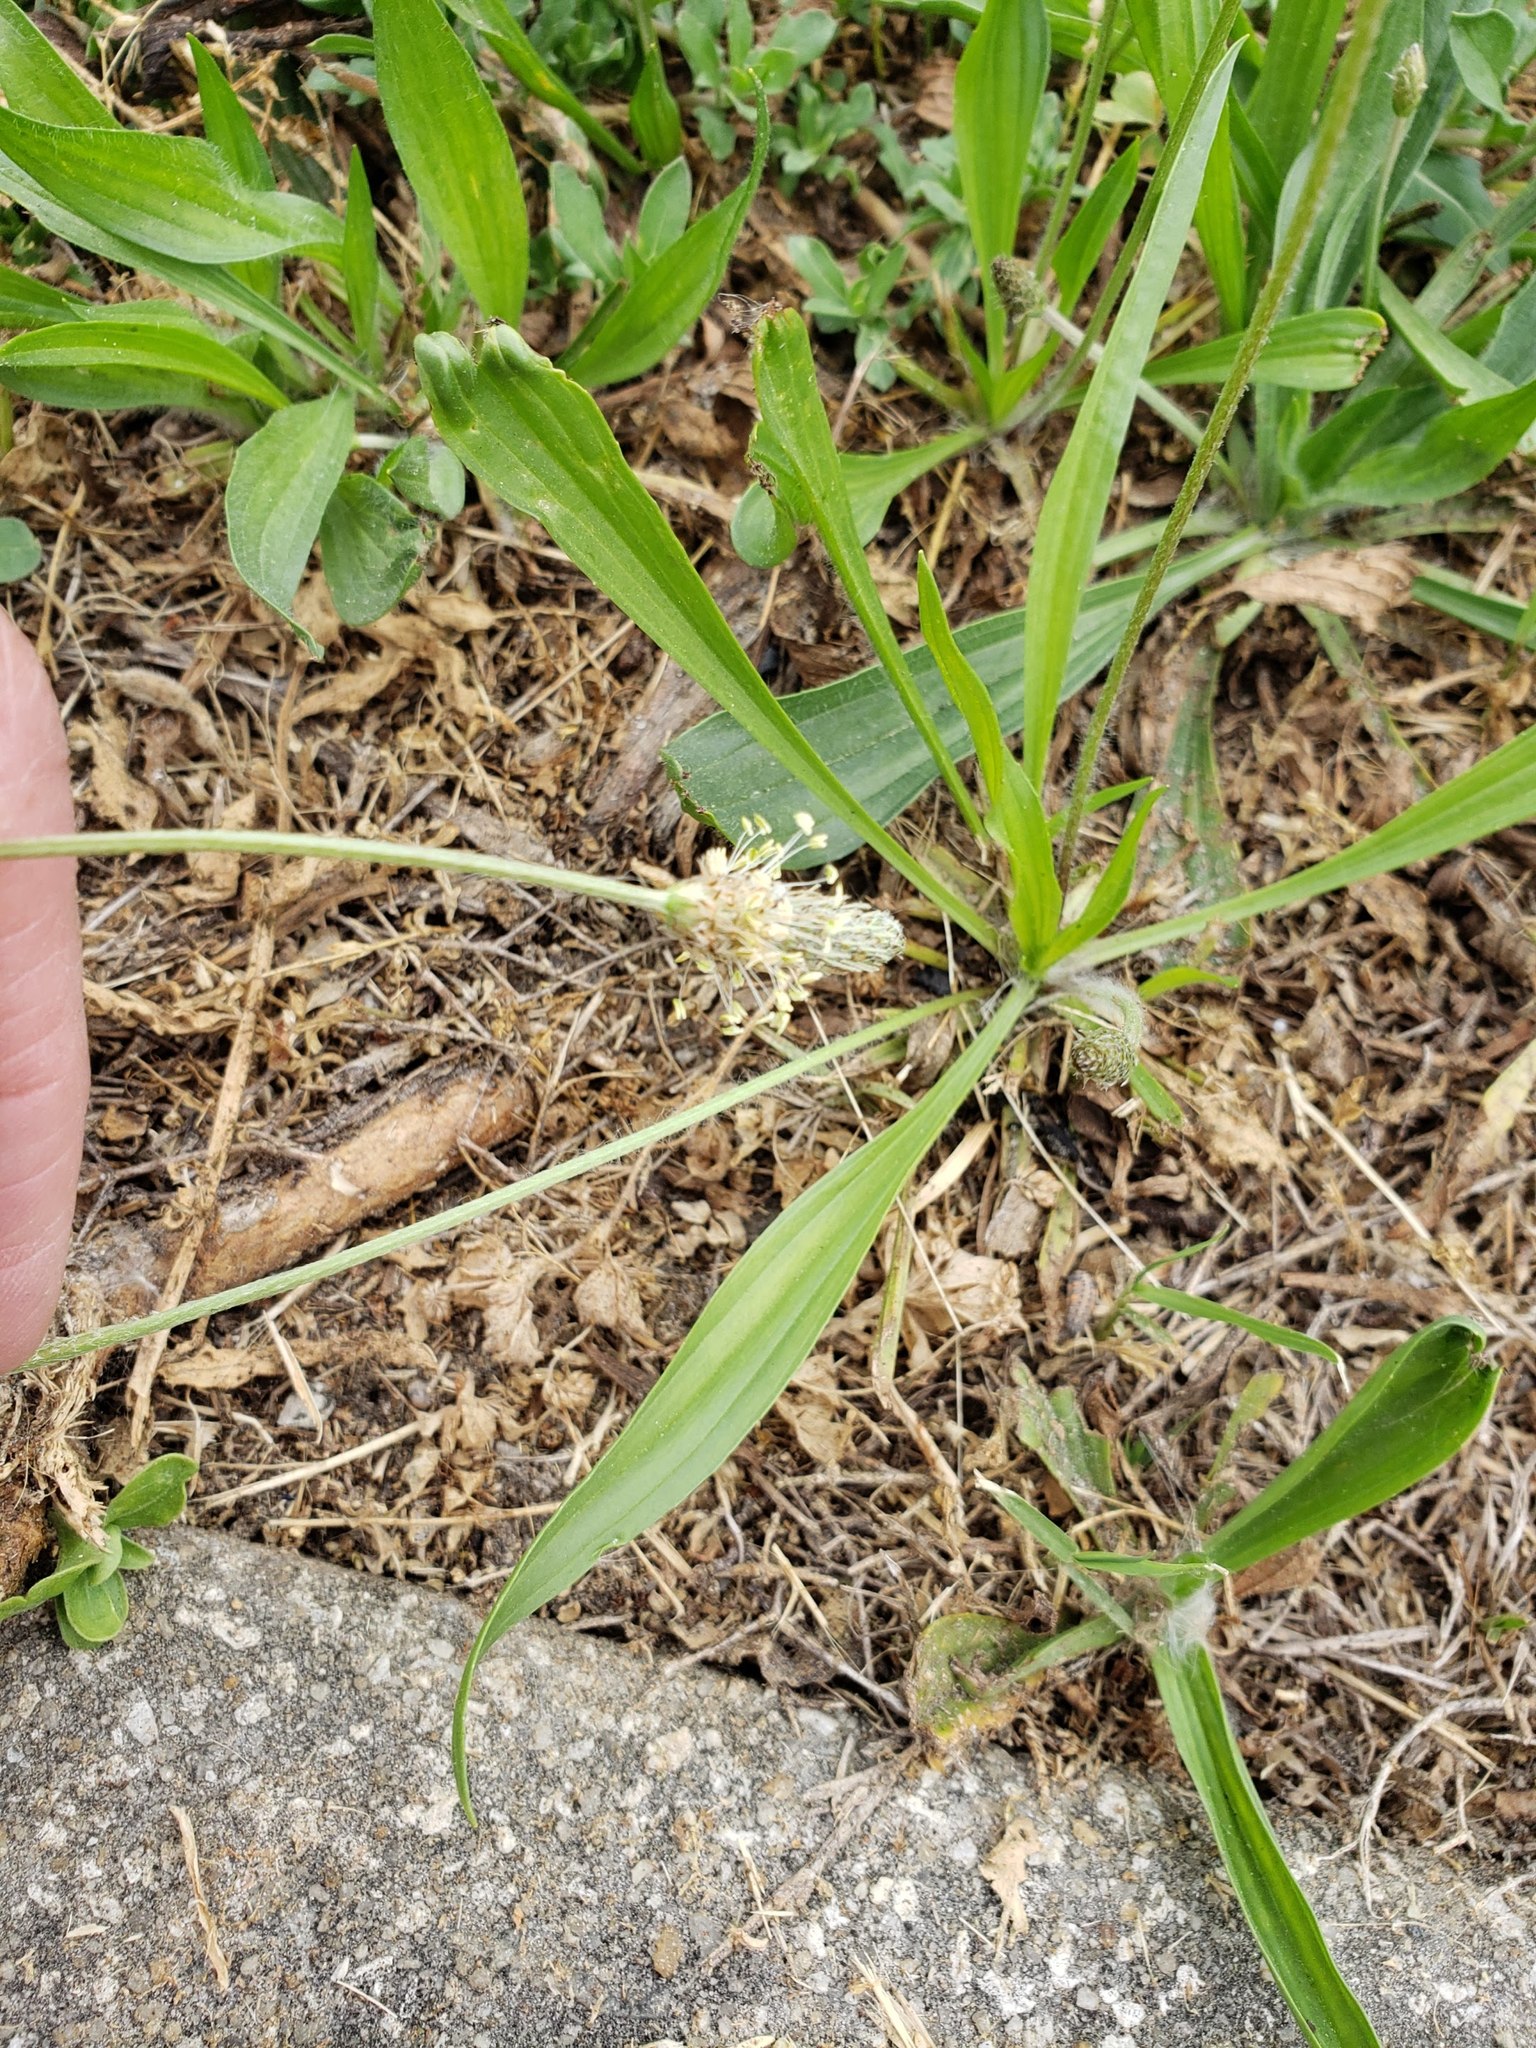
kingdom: Plantae
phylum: Tracheophyta
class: Magnoliopsida
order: Lamiales
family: Plantaginaceae
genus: Plantago
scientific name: Plantago lanceolata
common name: Ribwort plantain
